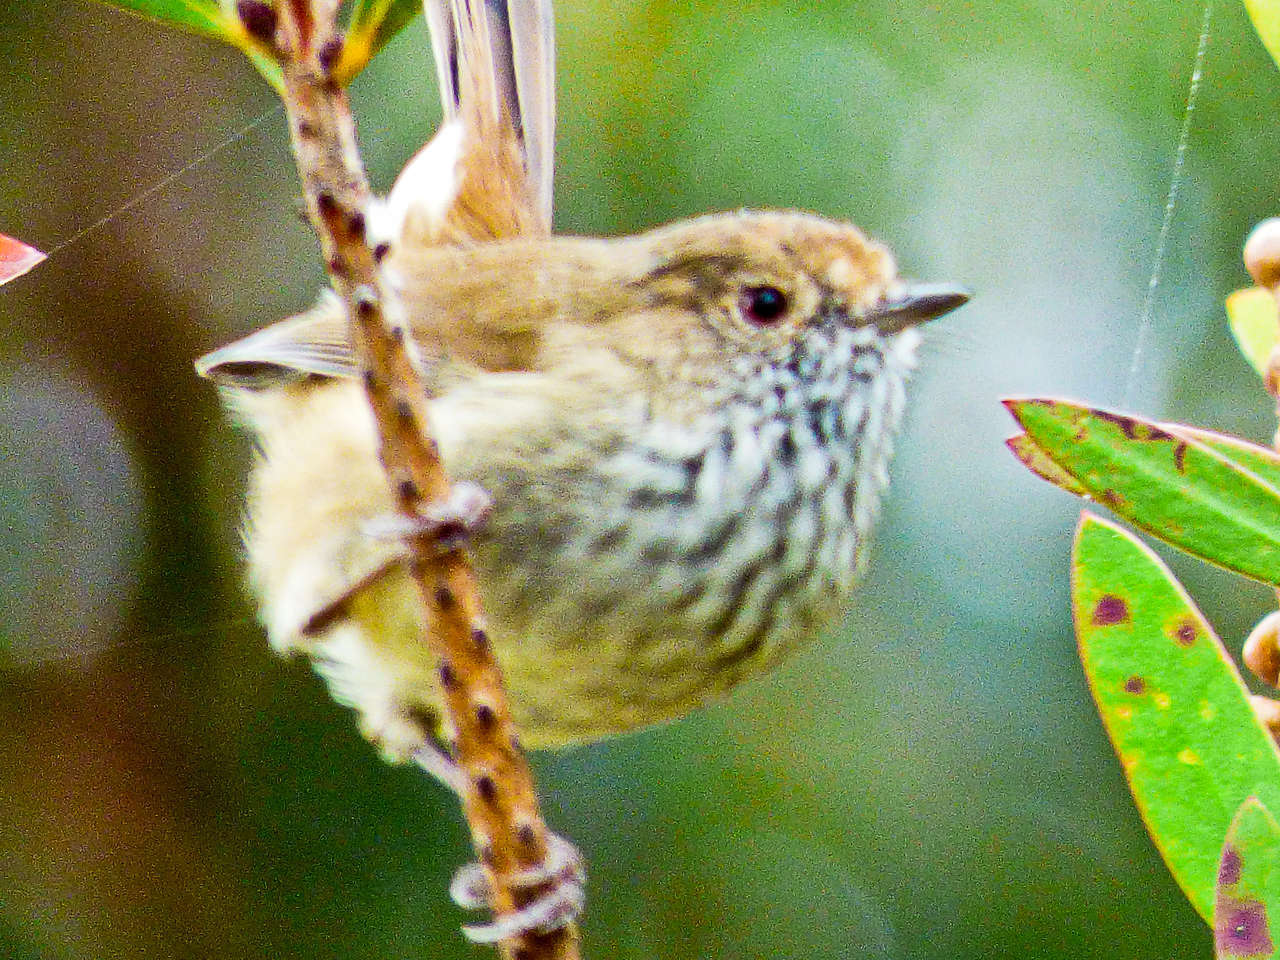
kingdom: Animalia
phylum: Chordata
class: Aves
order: Passeriformes
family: Acanthizidae
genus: Acanthiza
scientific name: Acanthiza pusilla
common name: Brown thornbill
